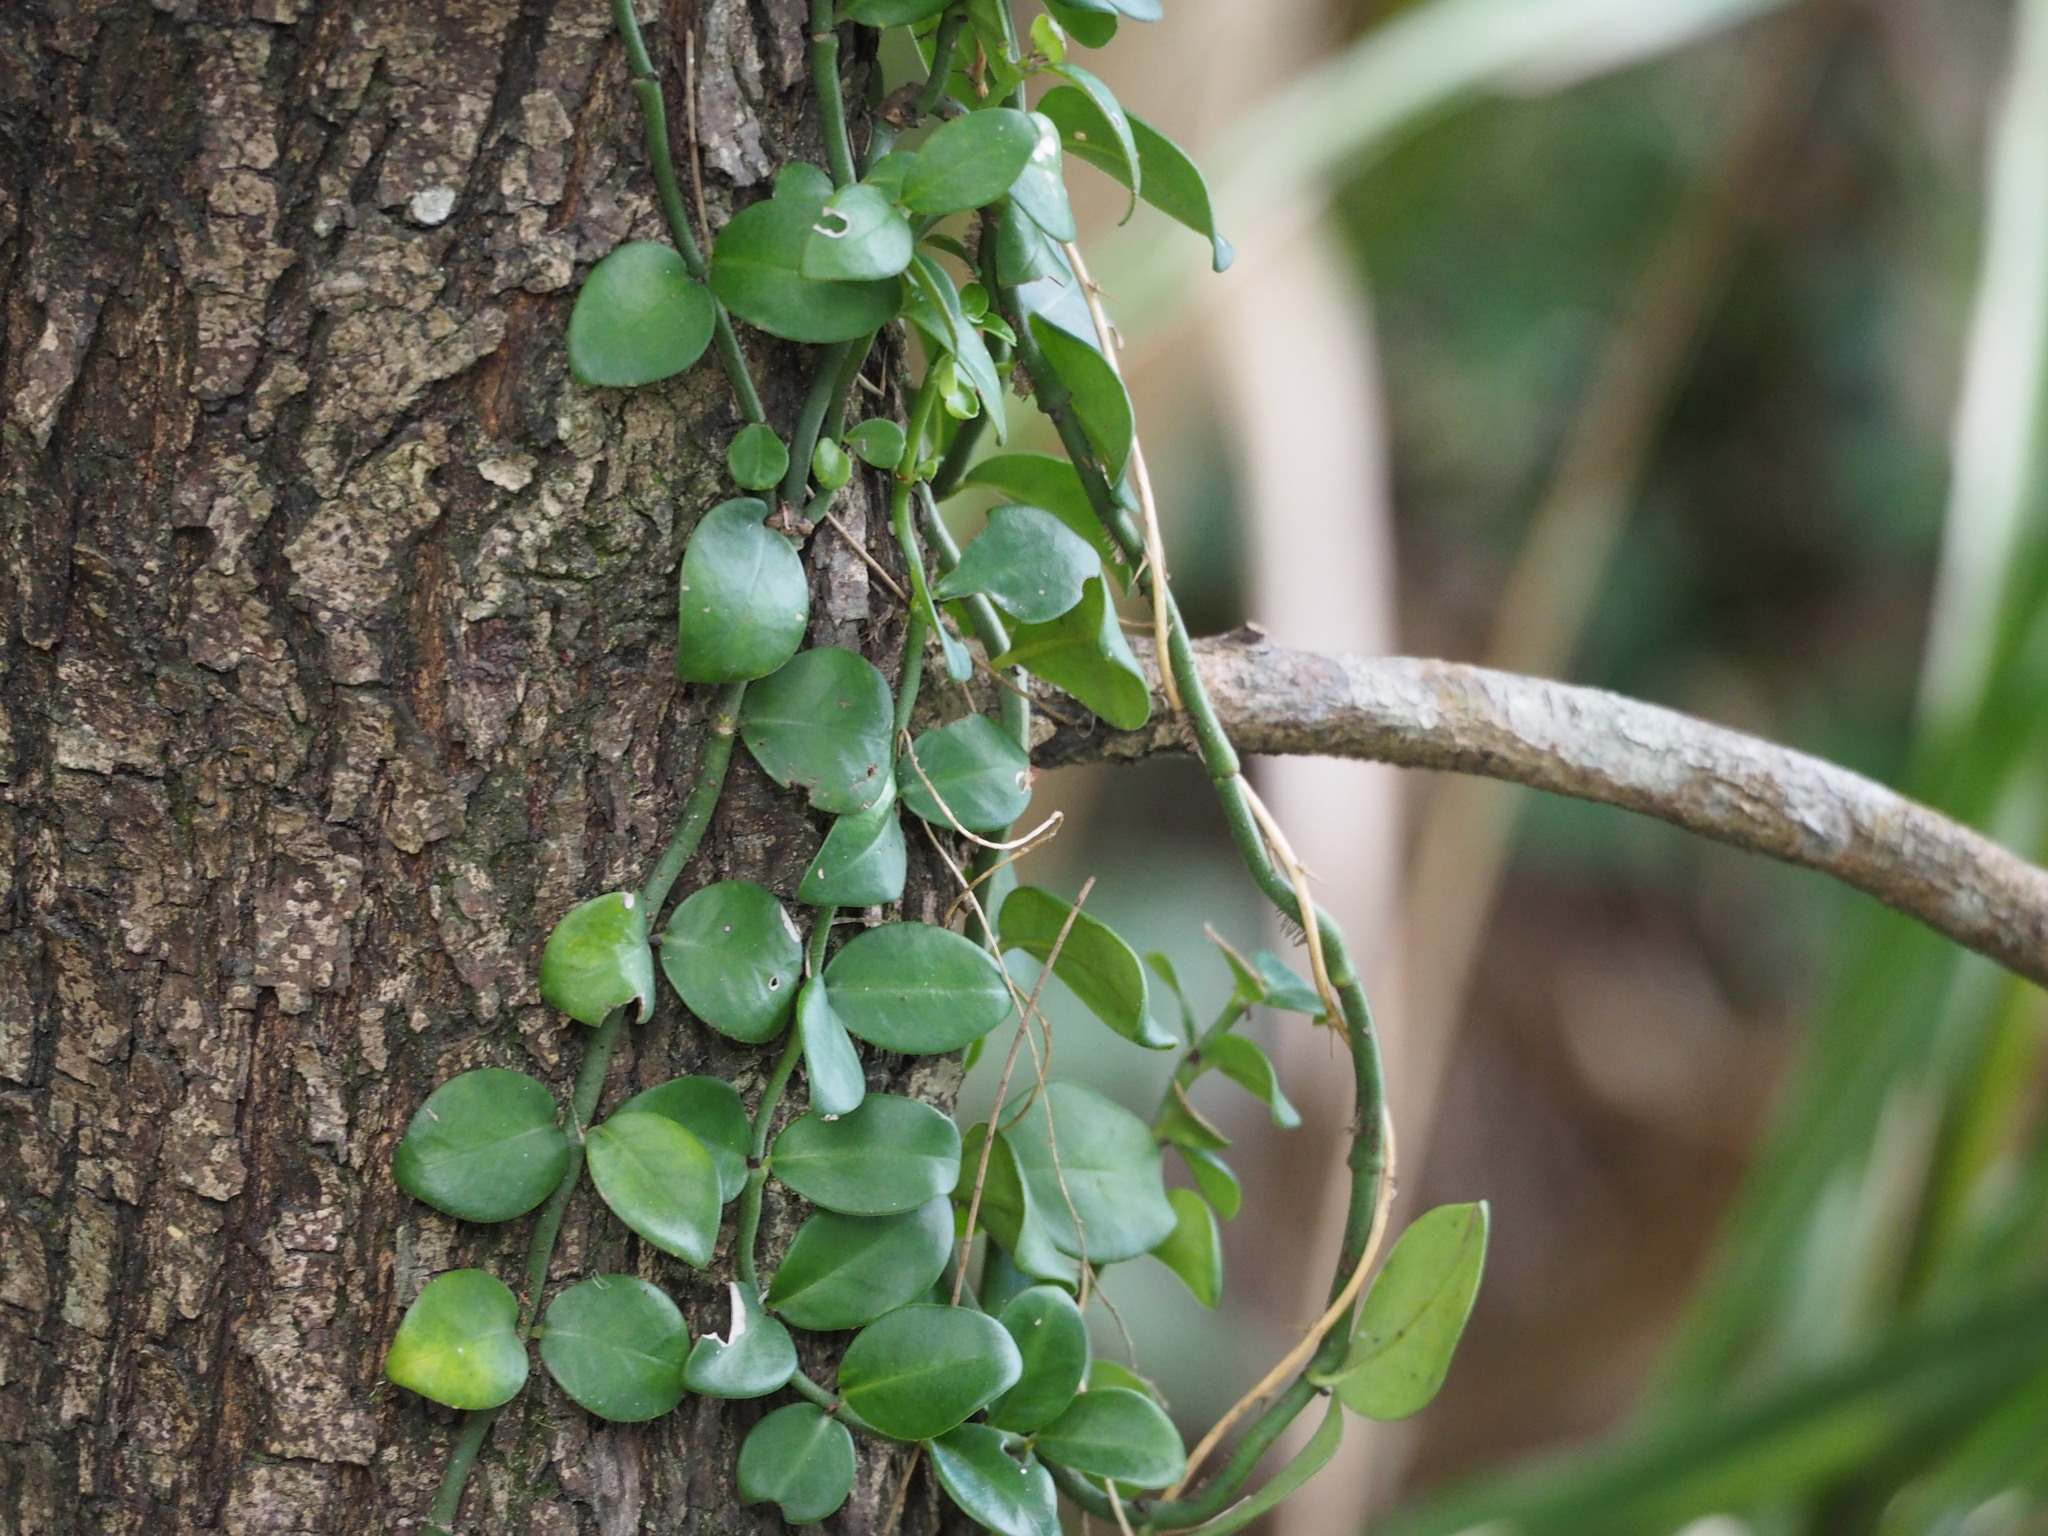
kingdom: Plantae
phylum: Tracheophyta
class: Magnoliopsida
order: Gentianales
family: Rubiaceae
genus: Psychotria
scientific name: Psychotria serpens
